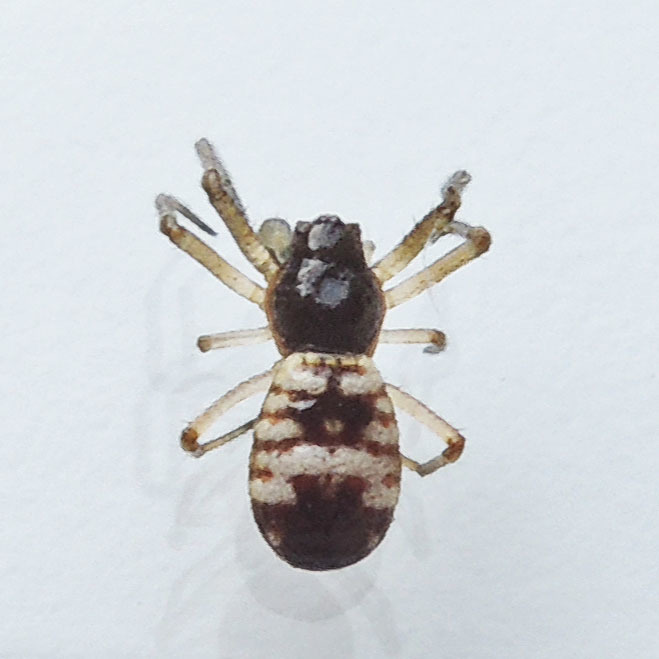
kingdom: Animalia
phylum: Arthropoda
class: Arachnida
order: Araneae
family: Araneidae
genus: Micrathena
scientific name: Micrathena mitrata
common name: Orb weavers
